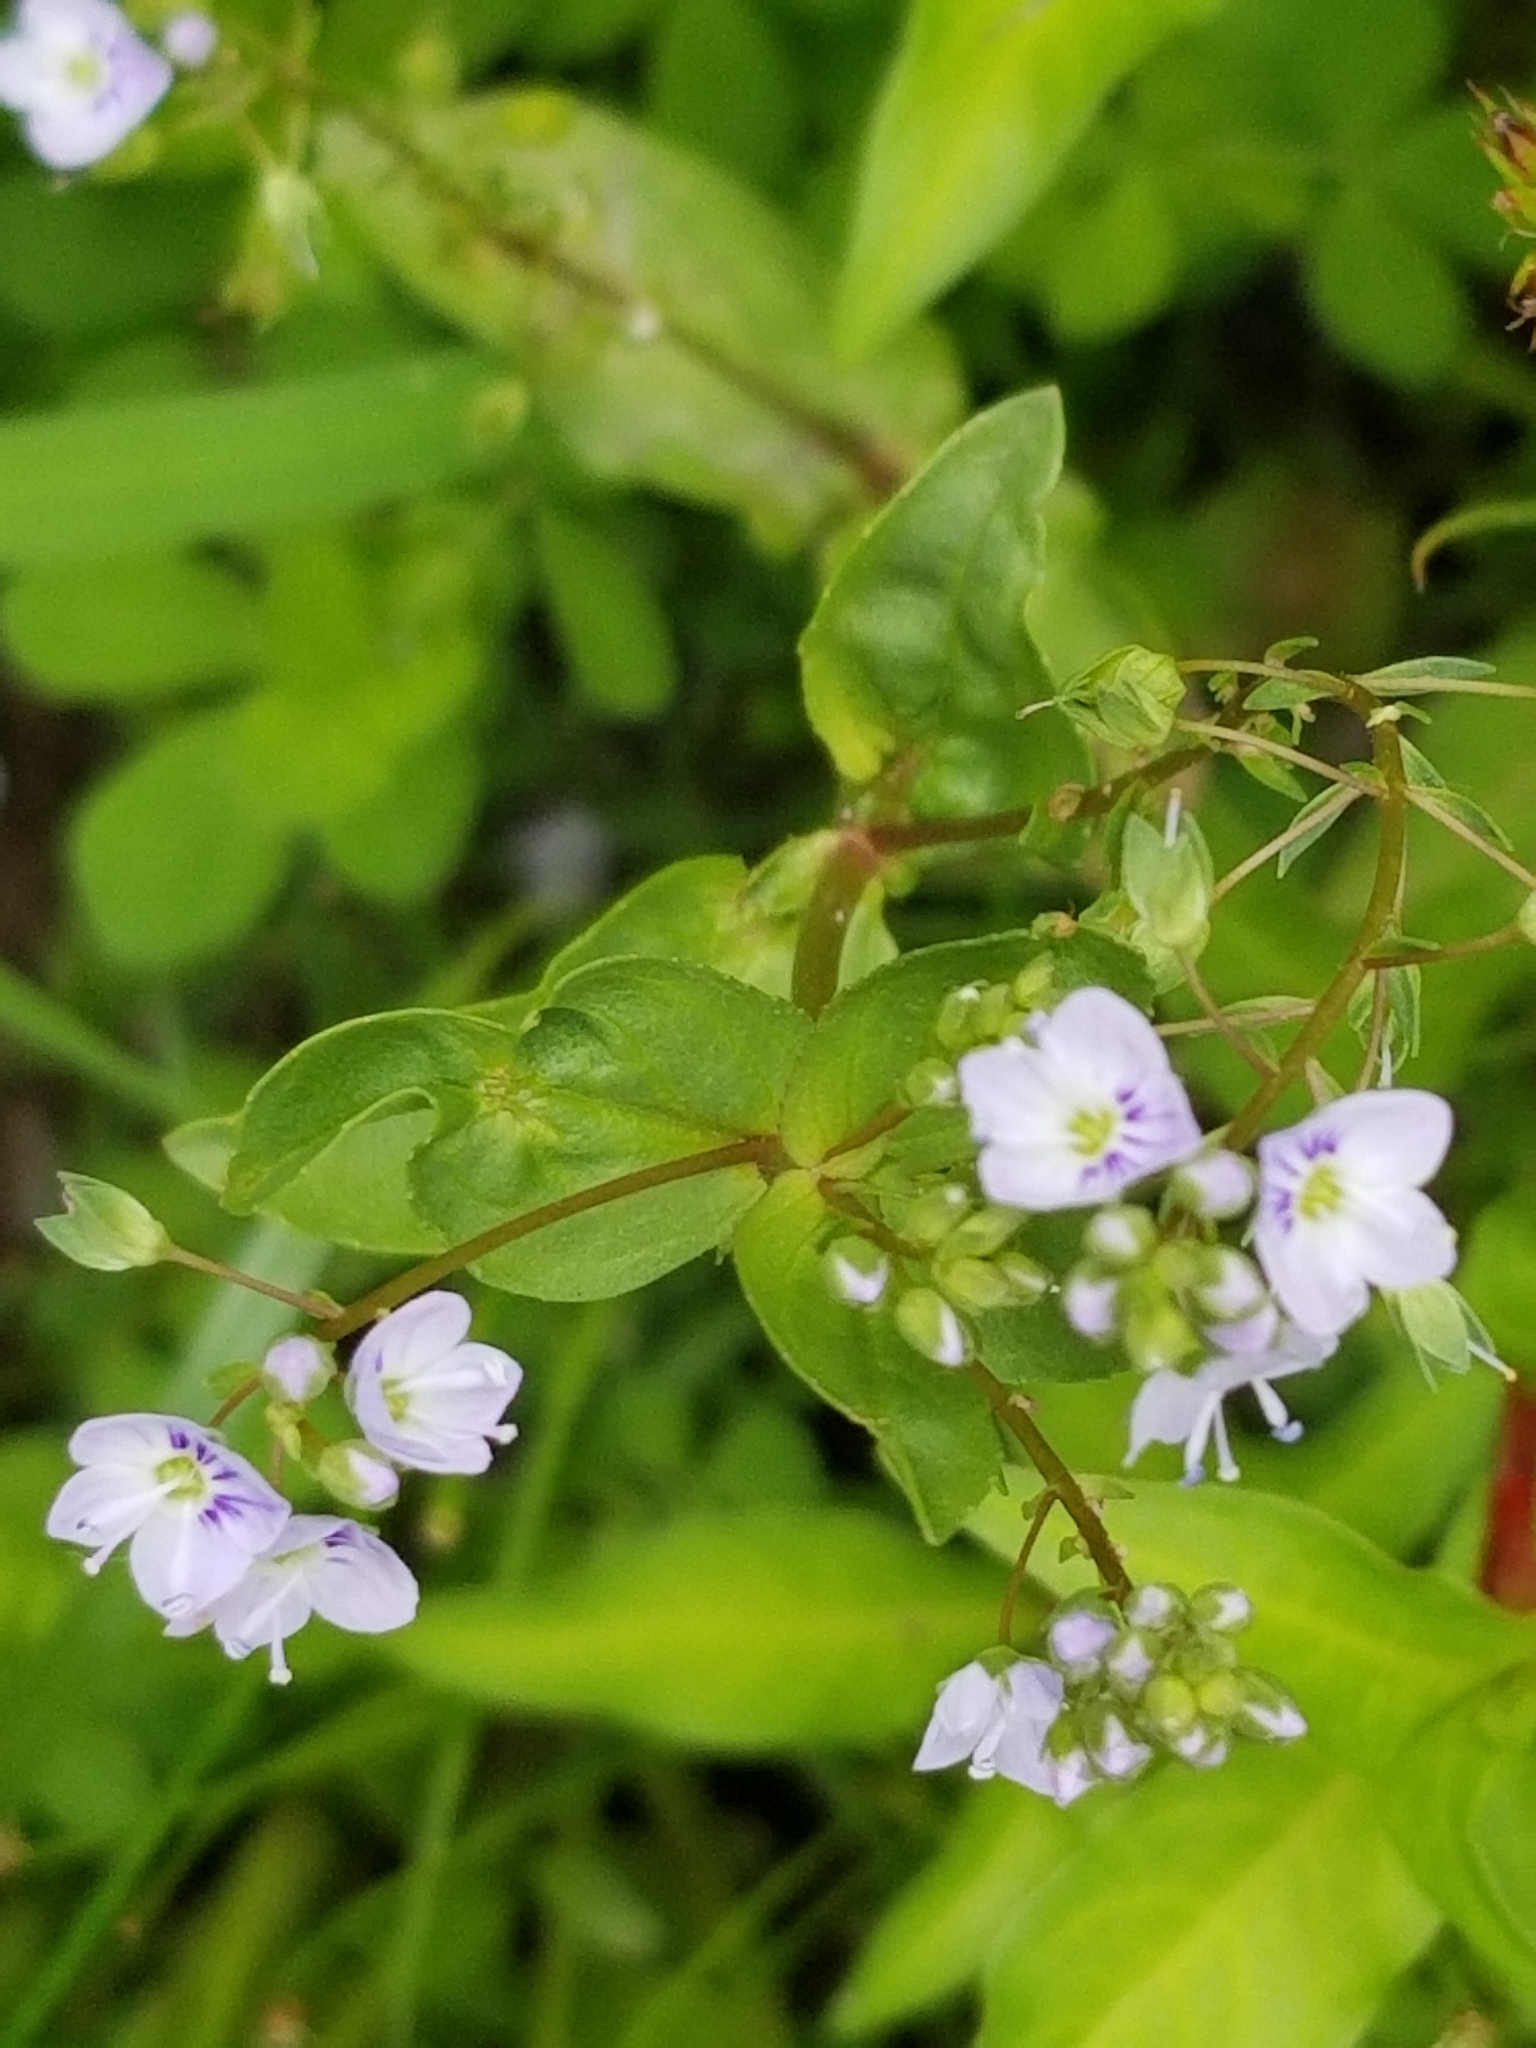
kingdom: Plantae
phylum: Tracheophyta
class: Magnoliopsida
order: Lamiales
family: Plantaginaceae
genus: Veronica
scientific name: Veronica anagallis-aquatica
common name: Water speedwell
